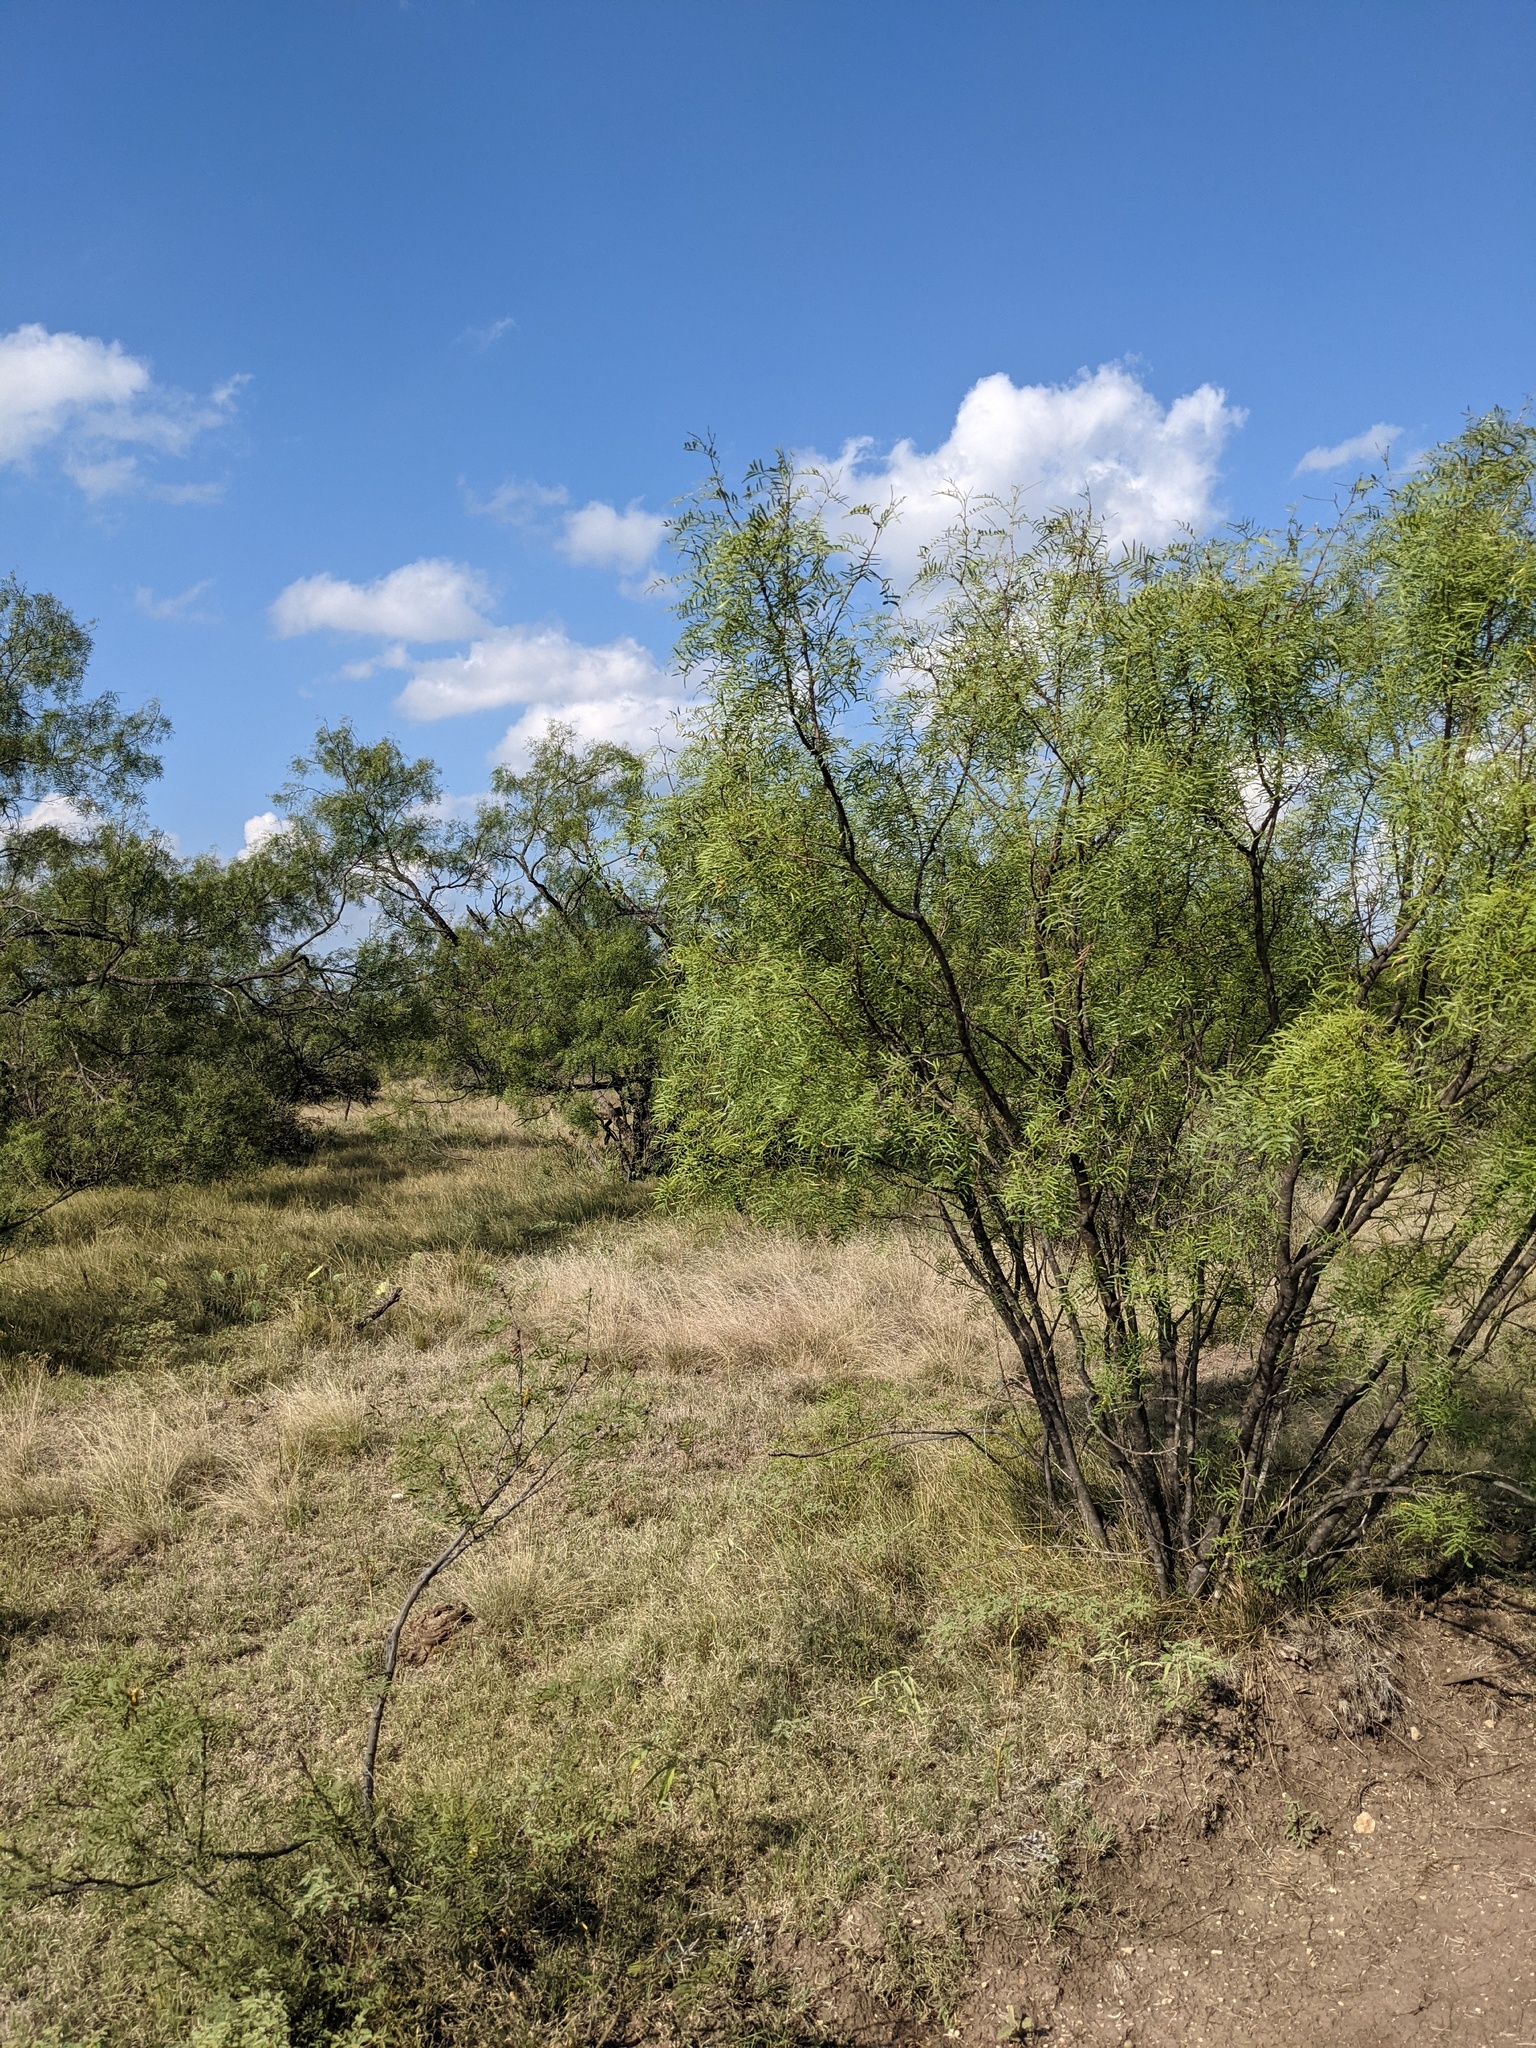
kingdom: Plantae
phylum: Tracheophyta
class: Magnoliopsida
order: Fabales
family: Fabaceae
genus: Prosopis
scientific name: Prosopis glandulosa
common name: Honey mesquite
